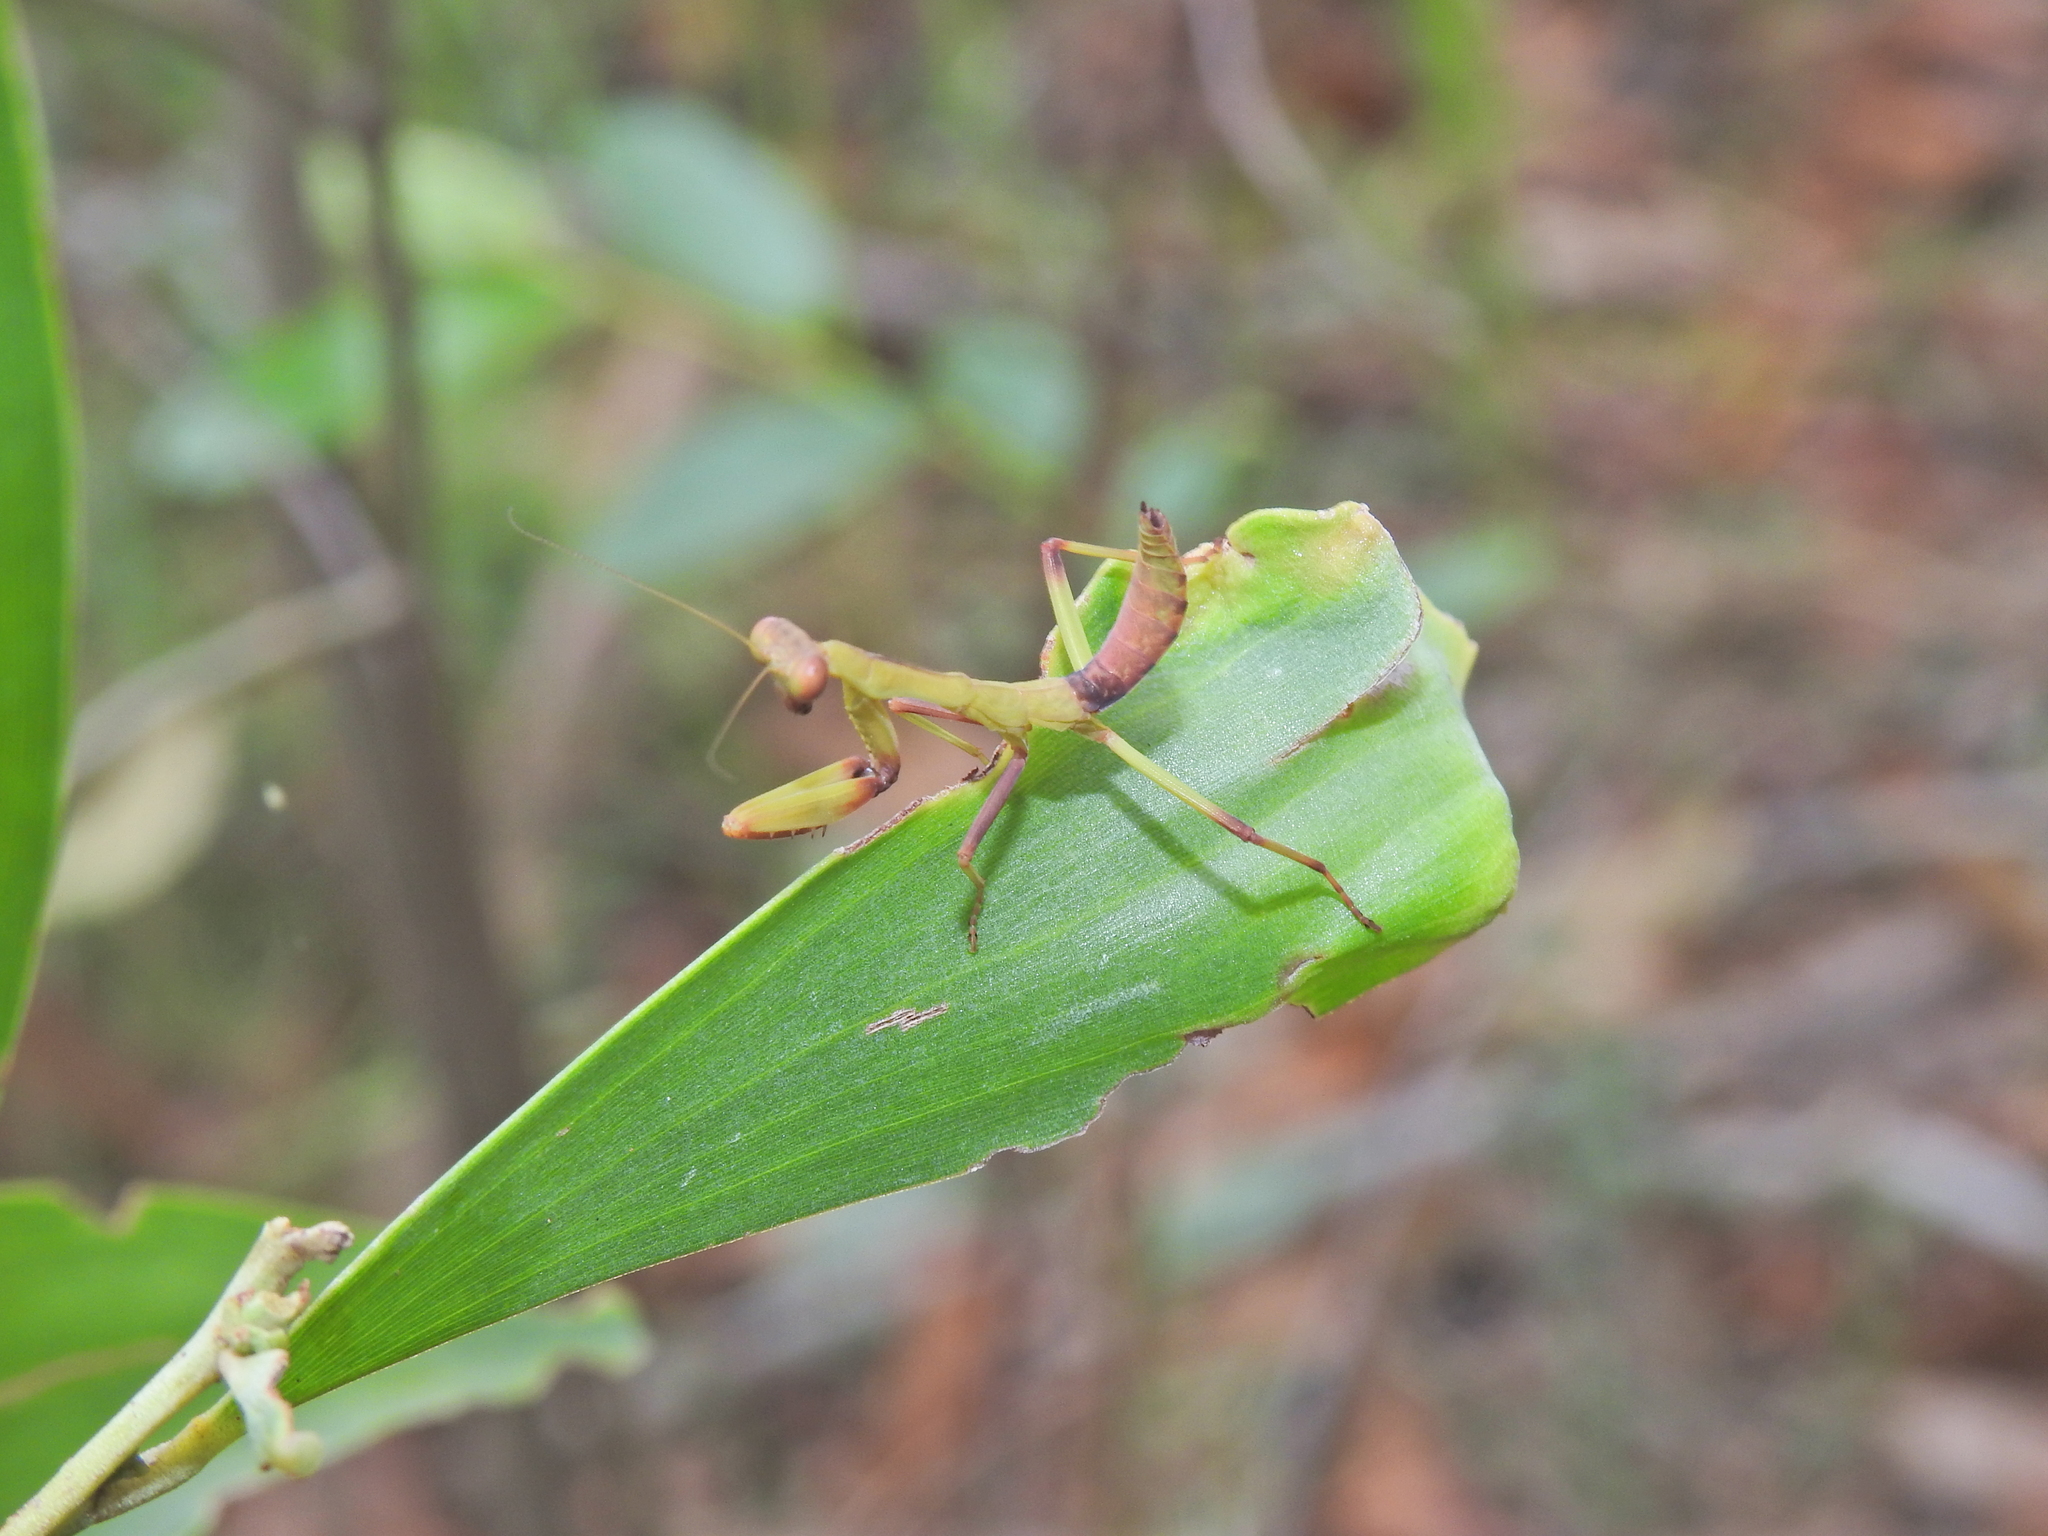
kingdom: Animalia
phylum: Arthropoda
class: Insecta
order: Mantodea
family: Mantidae
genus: Sphodropoda
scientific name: Sphodropoda quinquedens
